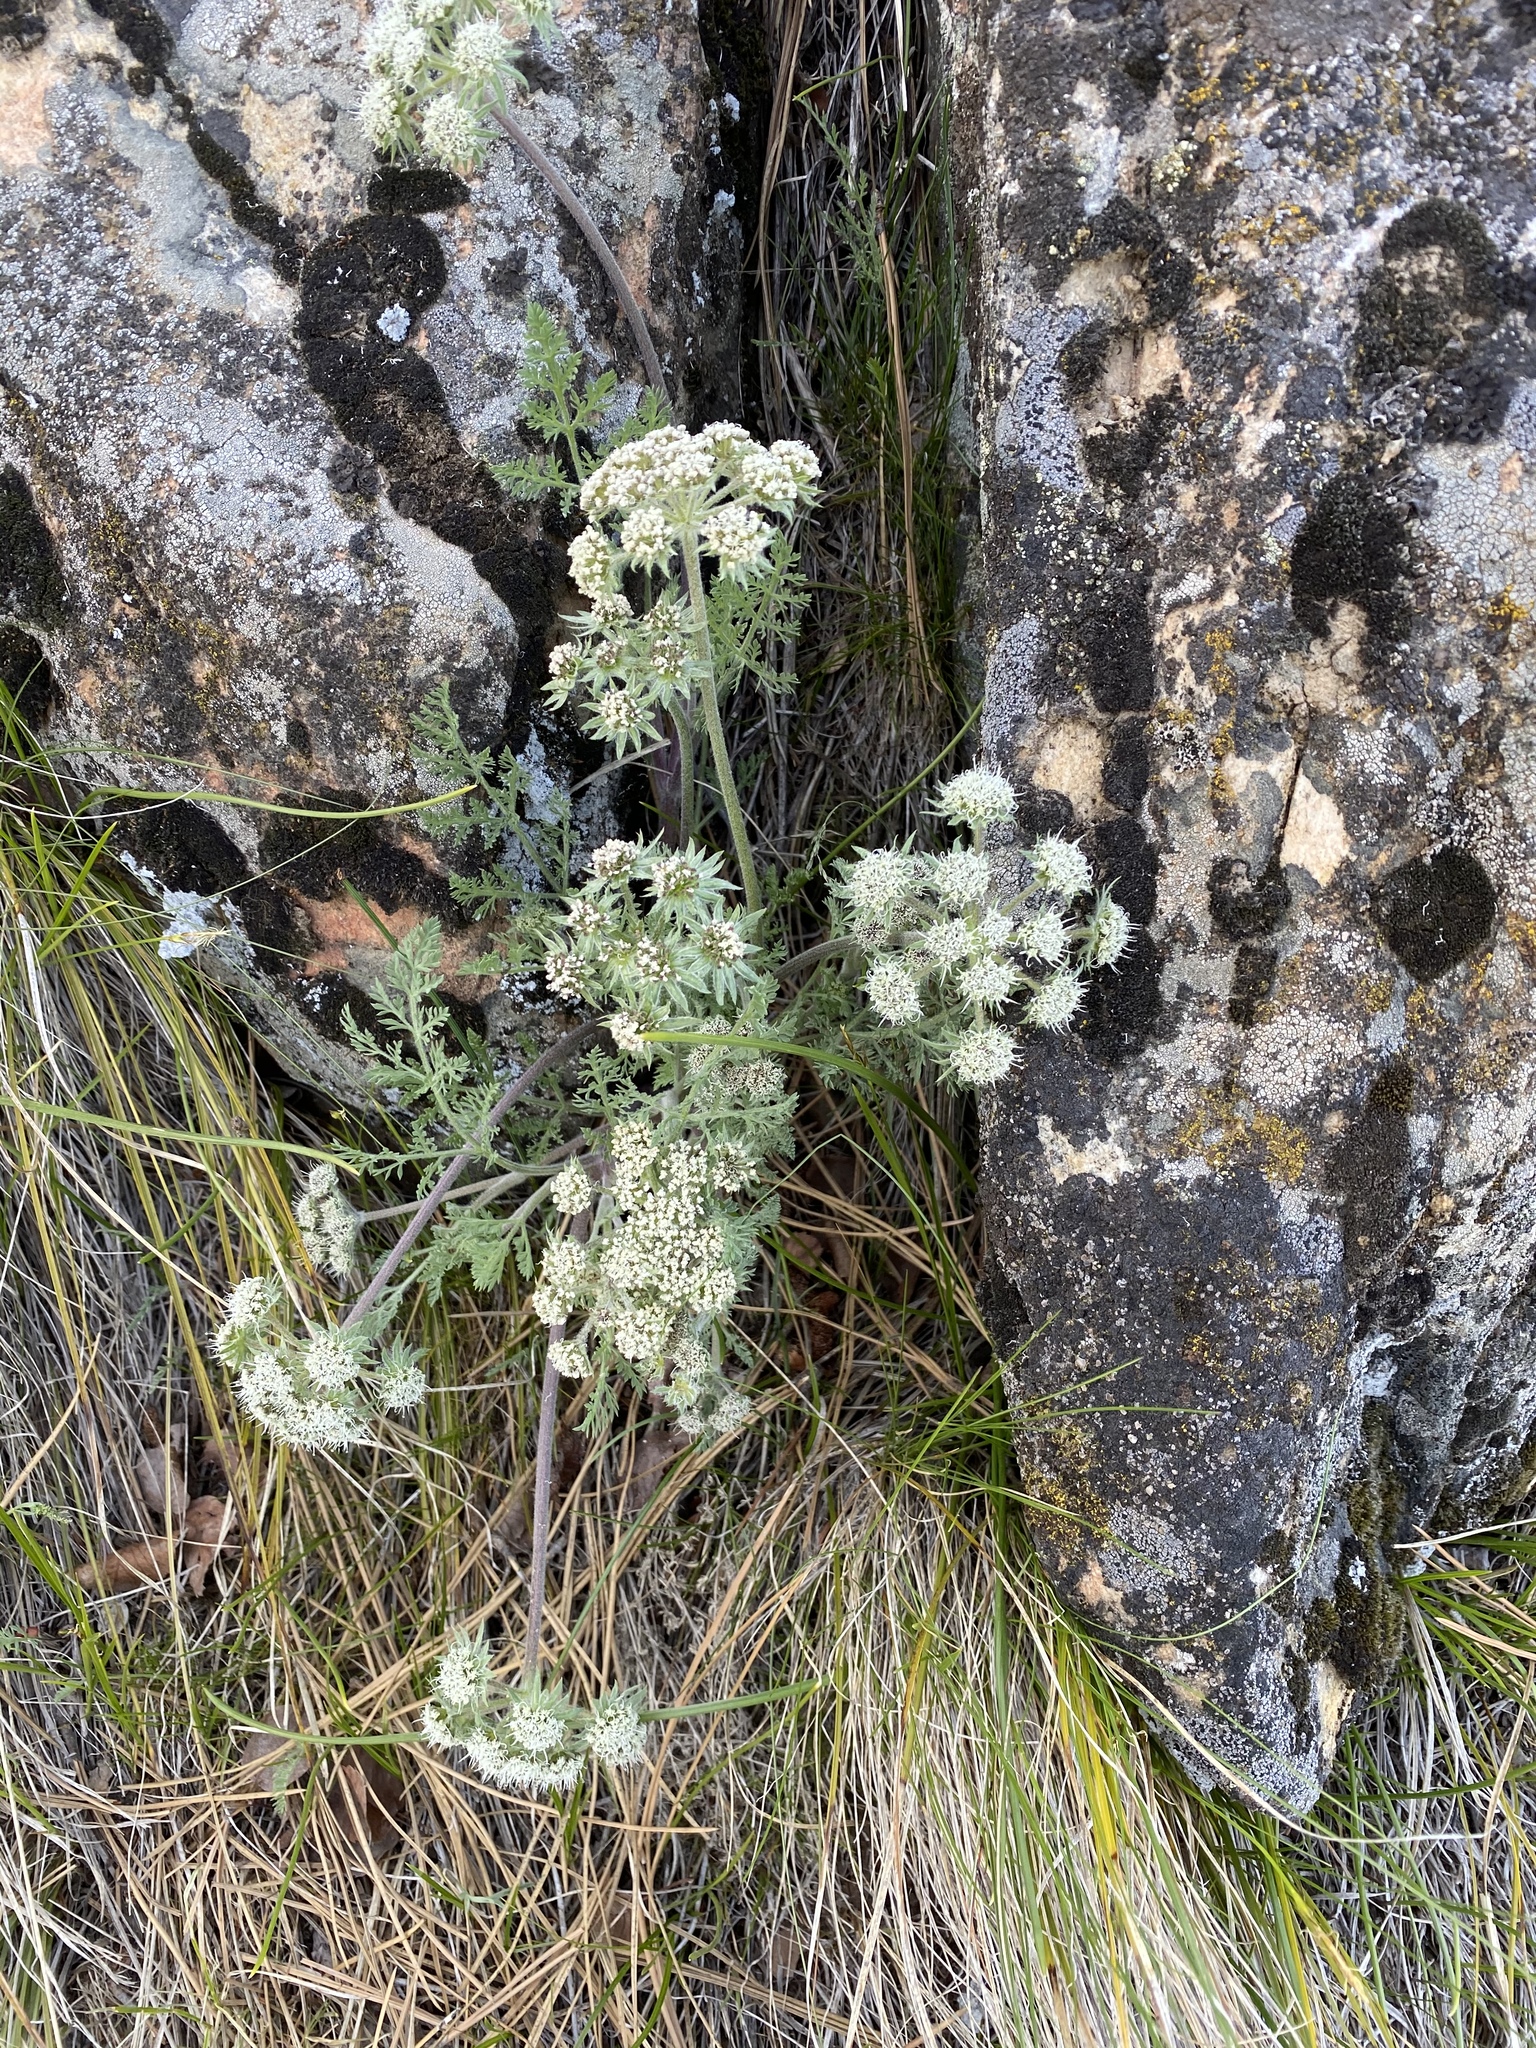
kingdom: Plantae
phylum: Tracheophyta
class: Magnoliopsida
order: Apiales
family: Apiaceae
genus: Lomatium
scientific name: Lomatium macrocarpum
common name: Big-seed biscuitroot
